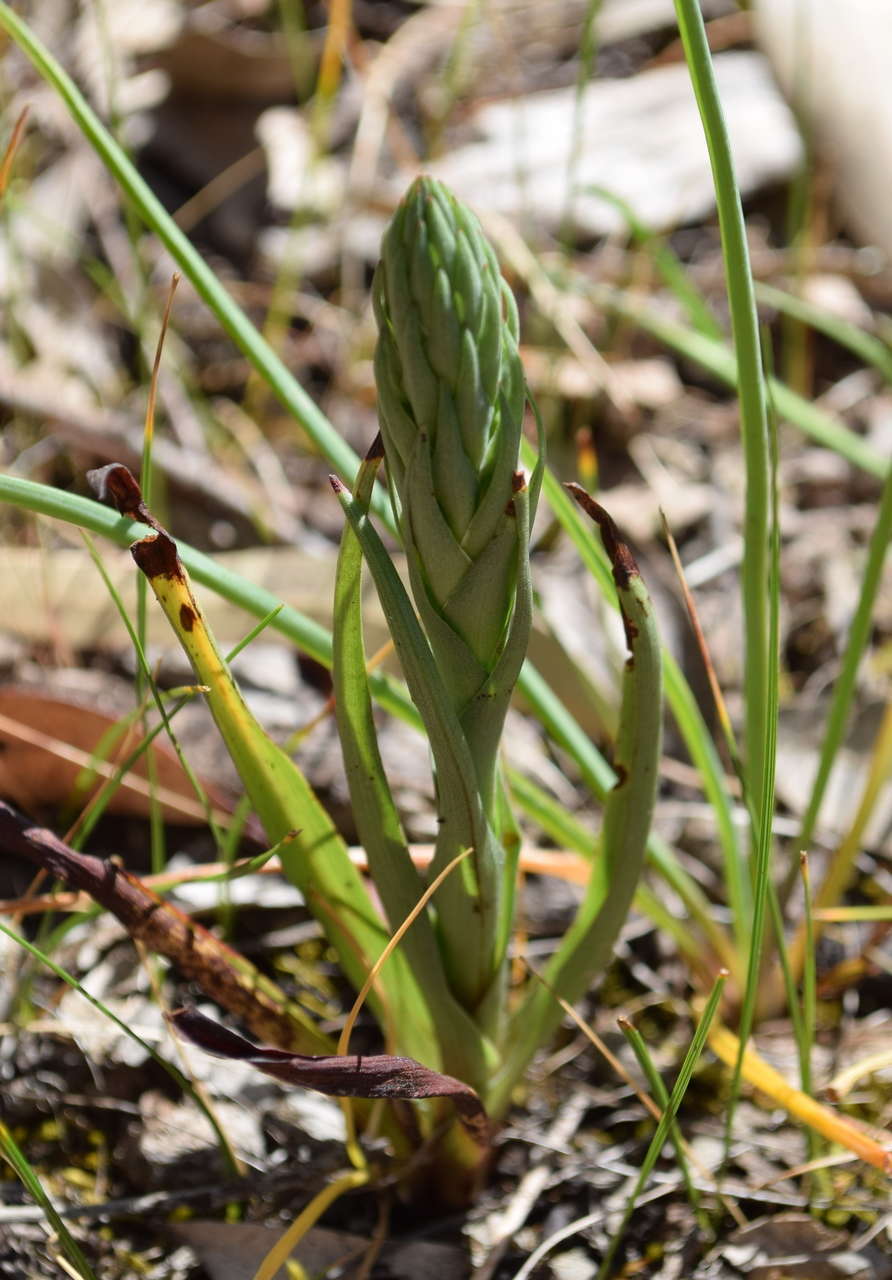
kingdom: Plantae
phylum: Tracheophyta
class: Liliopsida
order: Asparagales
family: Orchidaceae
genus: Disa
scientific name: Disa bracteata
